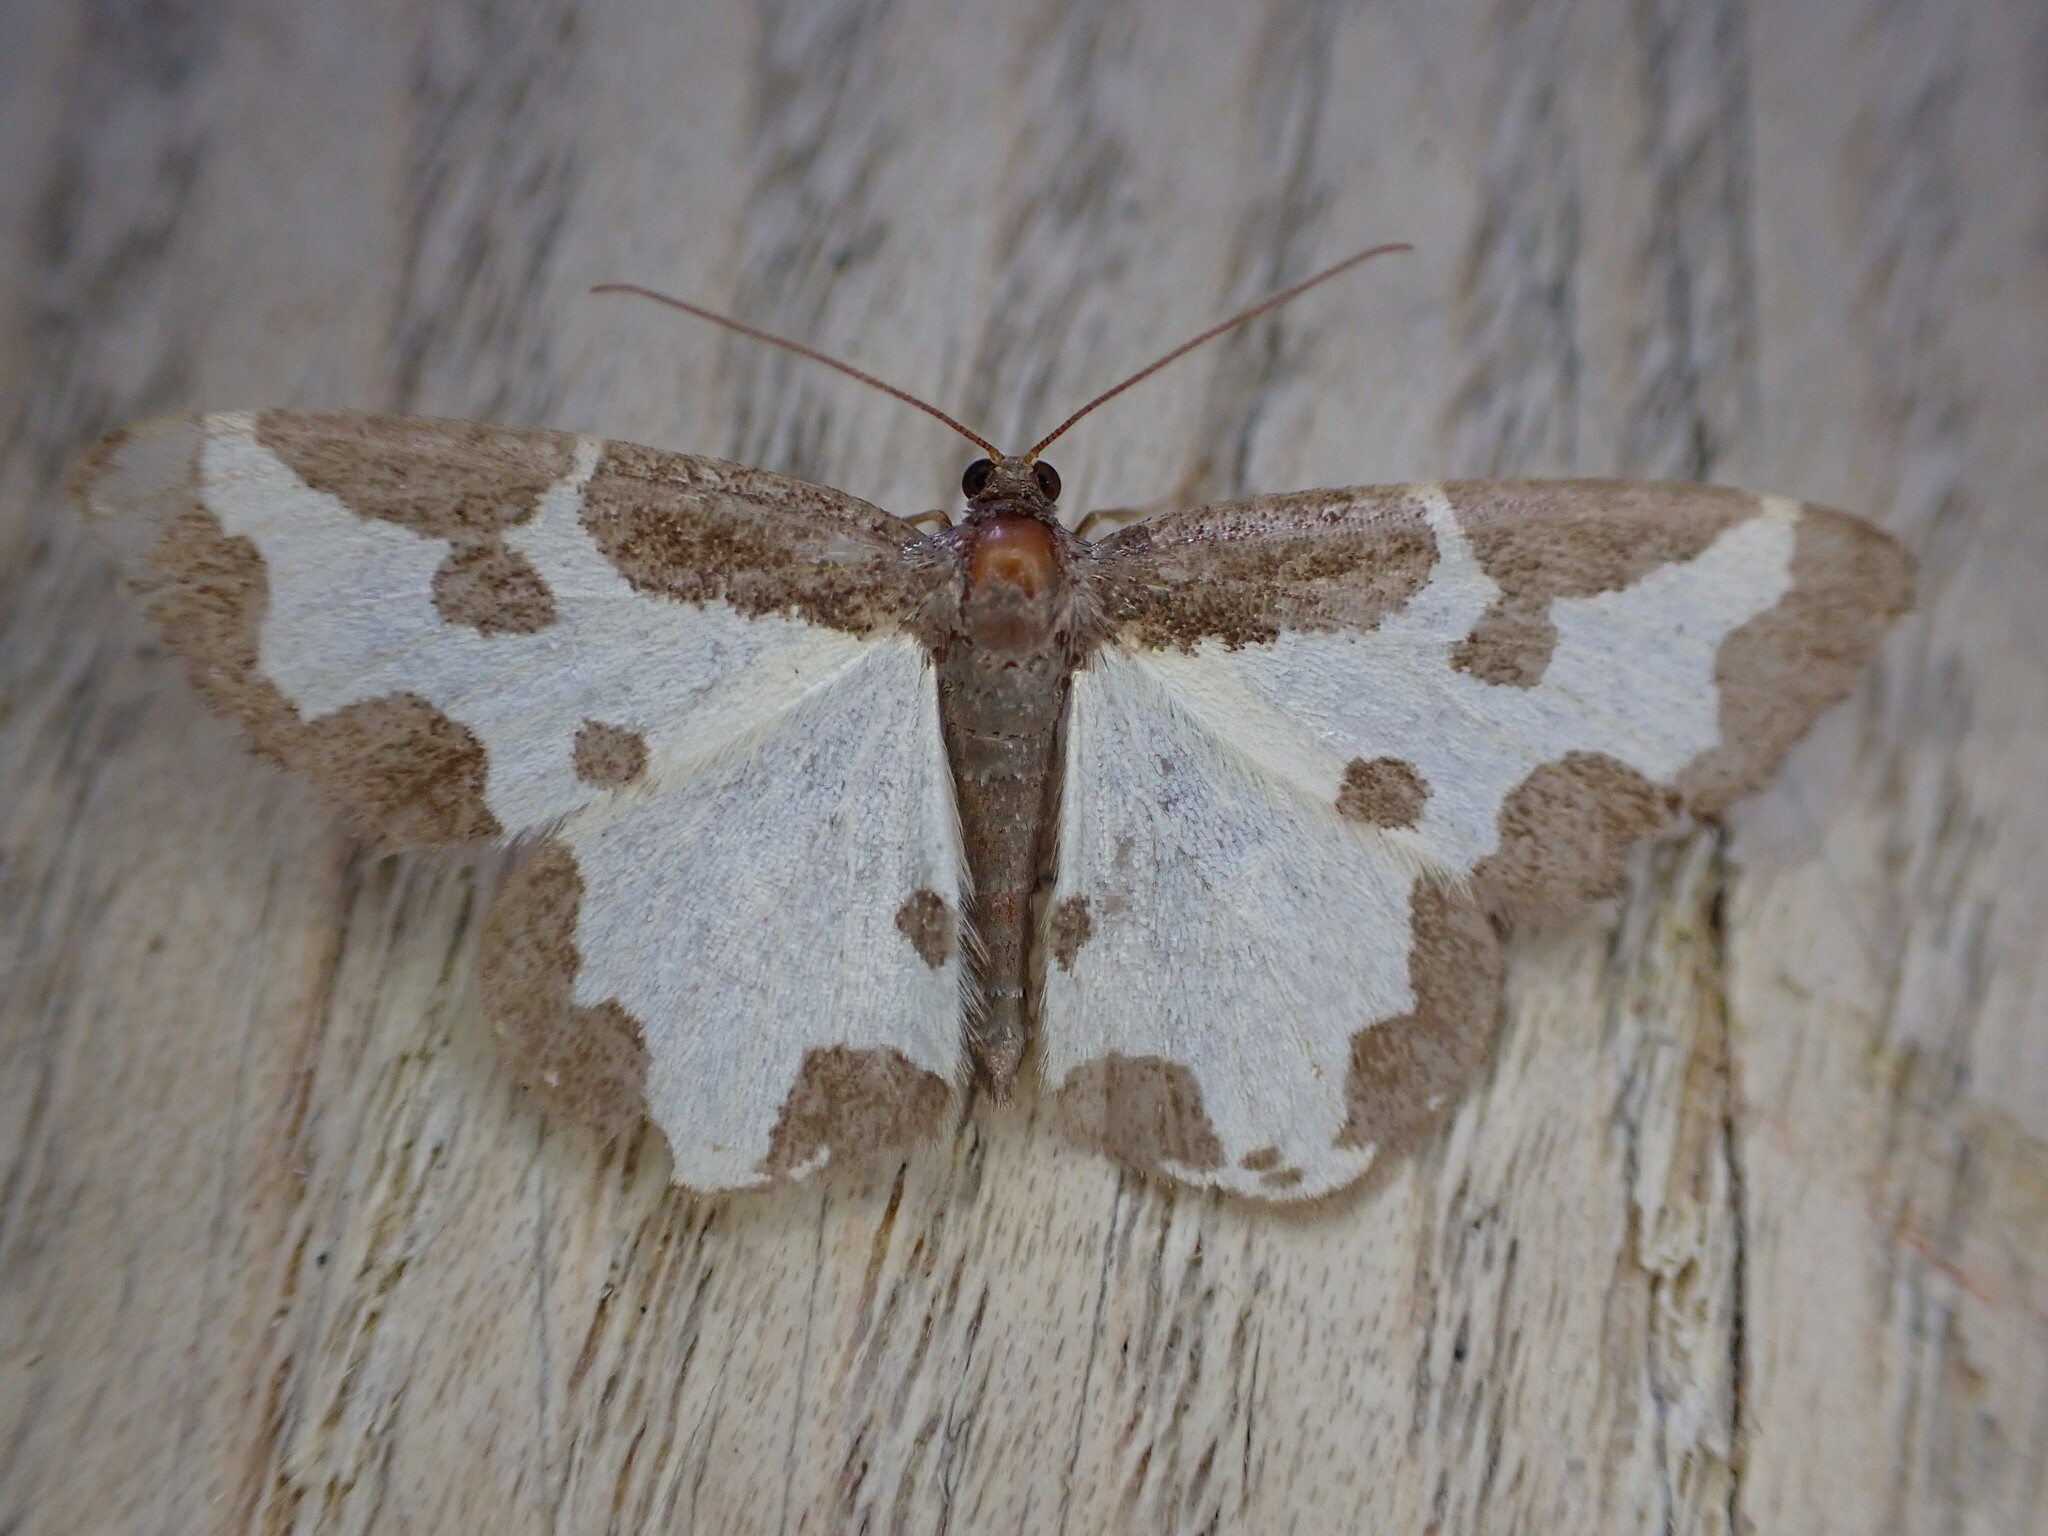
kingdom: Animalia
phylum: Arthropoda
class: Insecta
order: Lepidoptera
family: Geometridae
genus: Lomaspilis
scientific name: Lomaspilis marginata
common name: Clouded border
